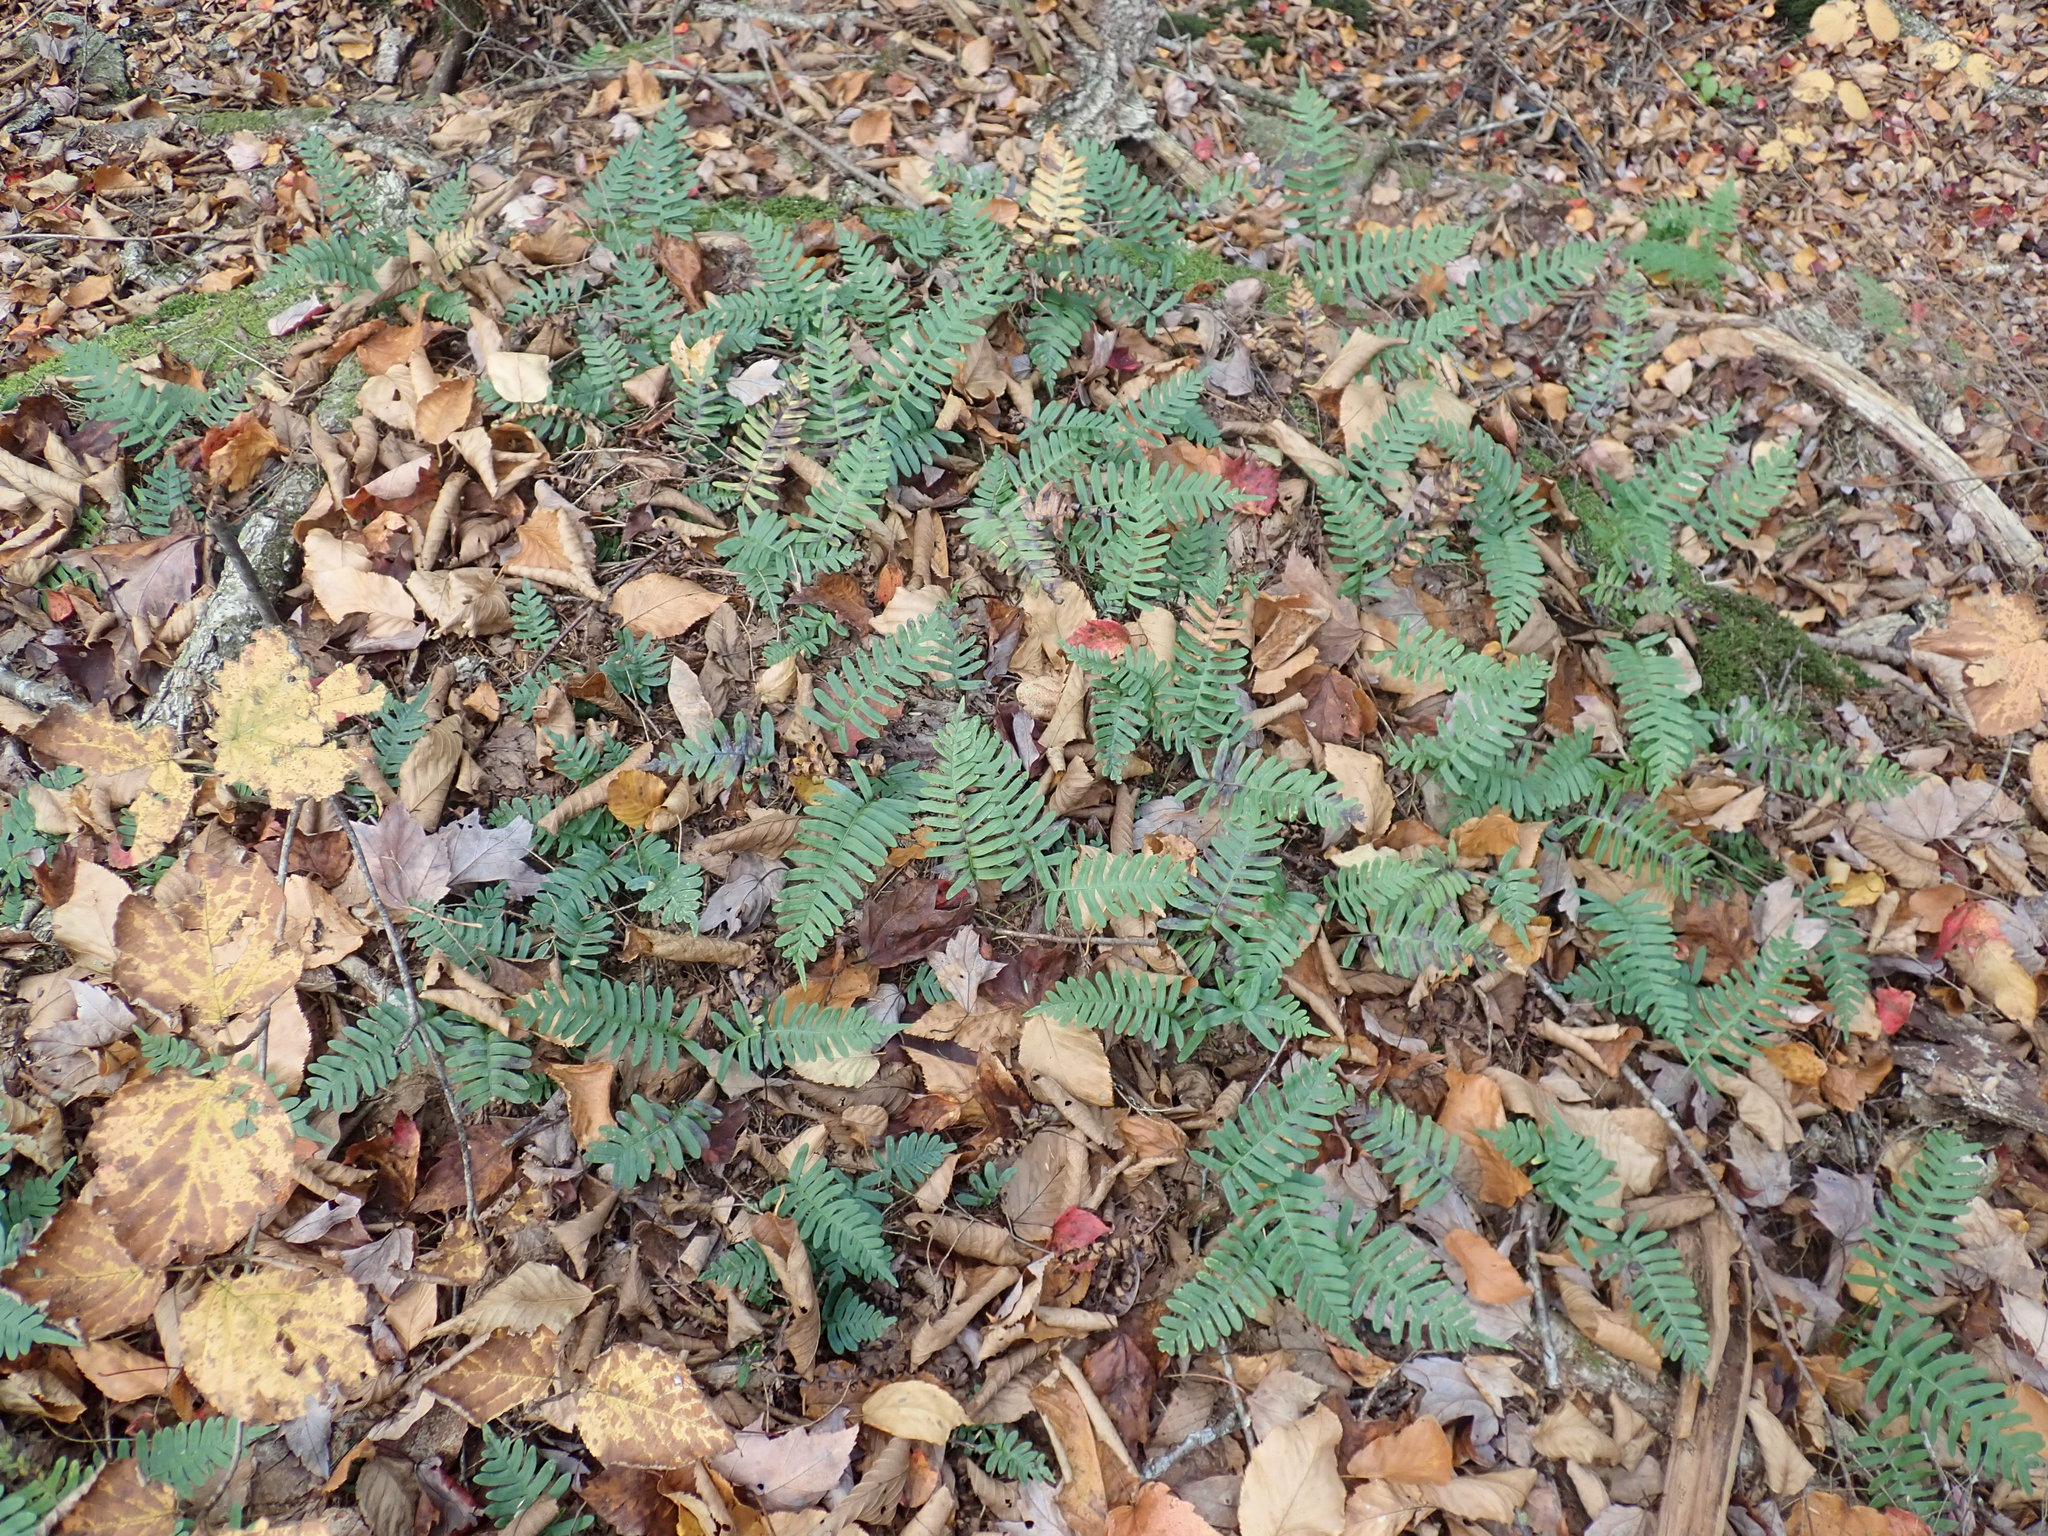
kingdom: Plantae
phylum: Tracheophyta
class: Polypodiopsida
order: Polypodiales
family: Polypodiaceae
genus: Polypodium
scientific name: Polypodium
